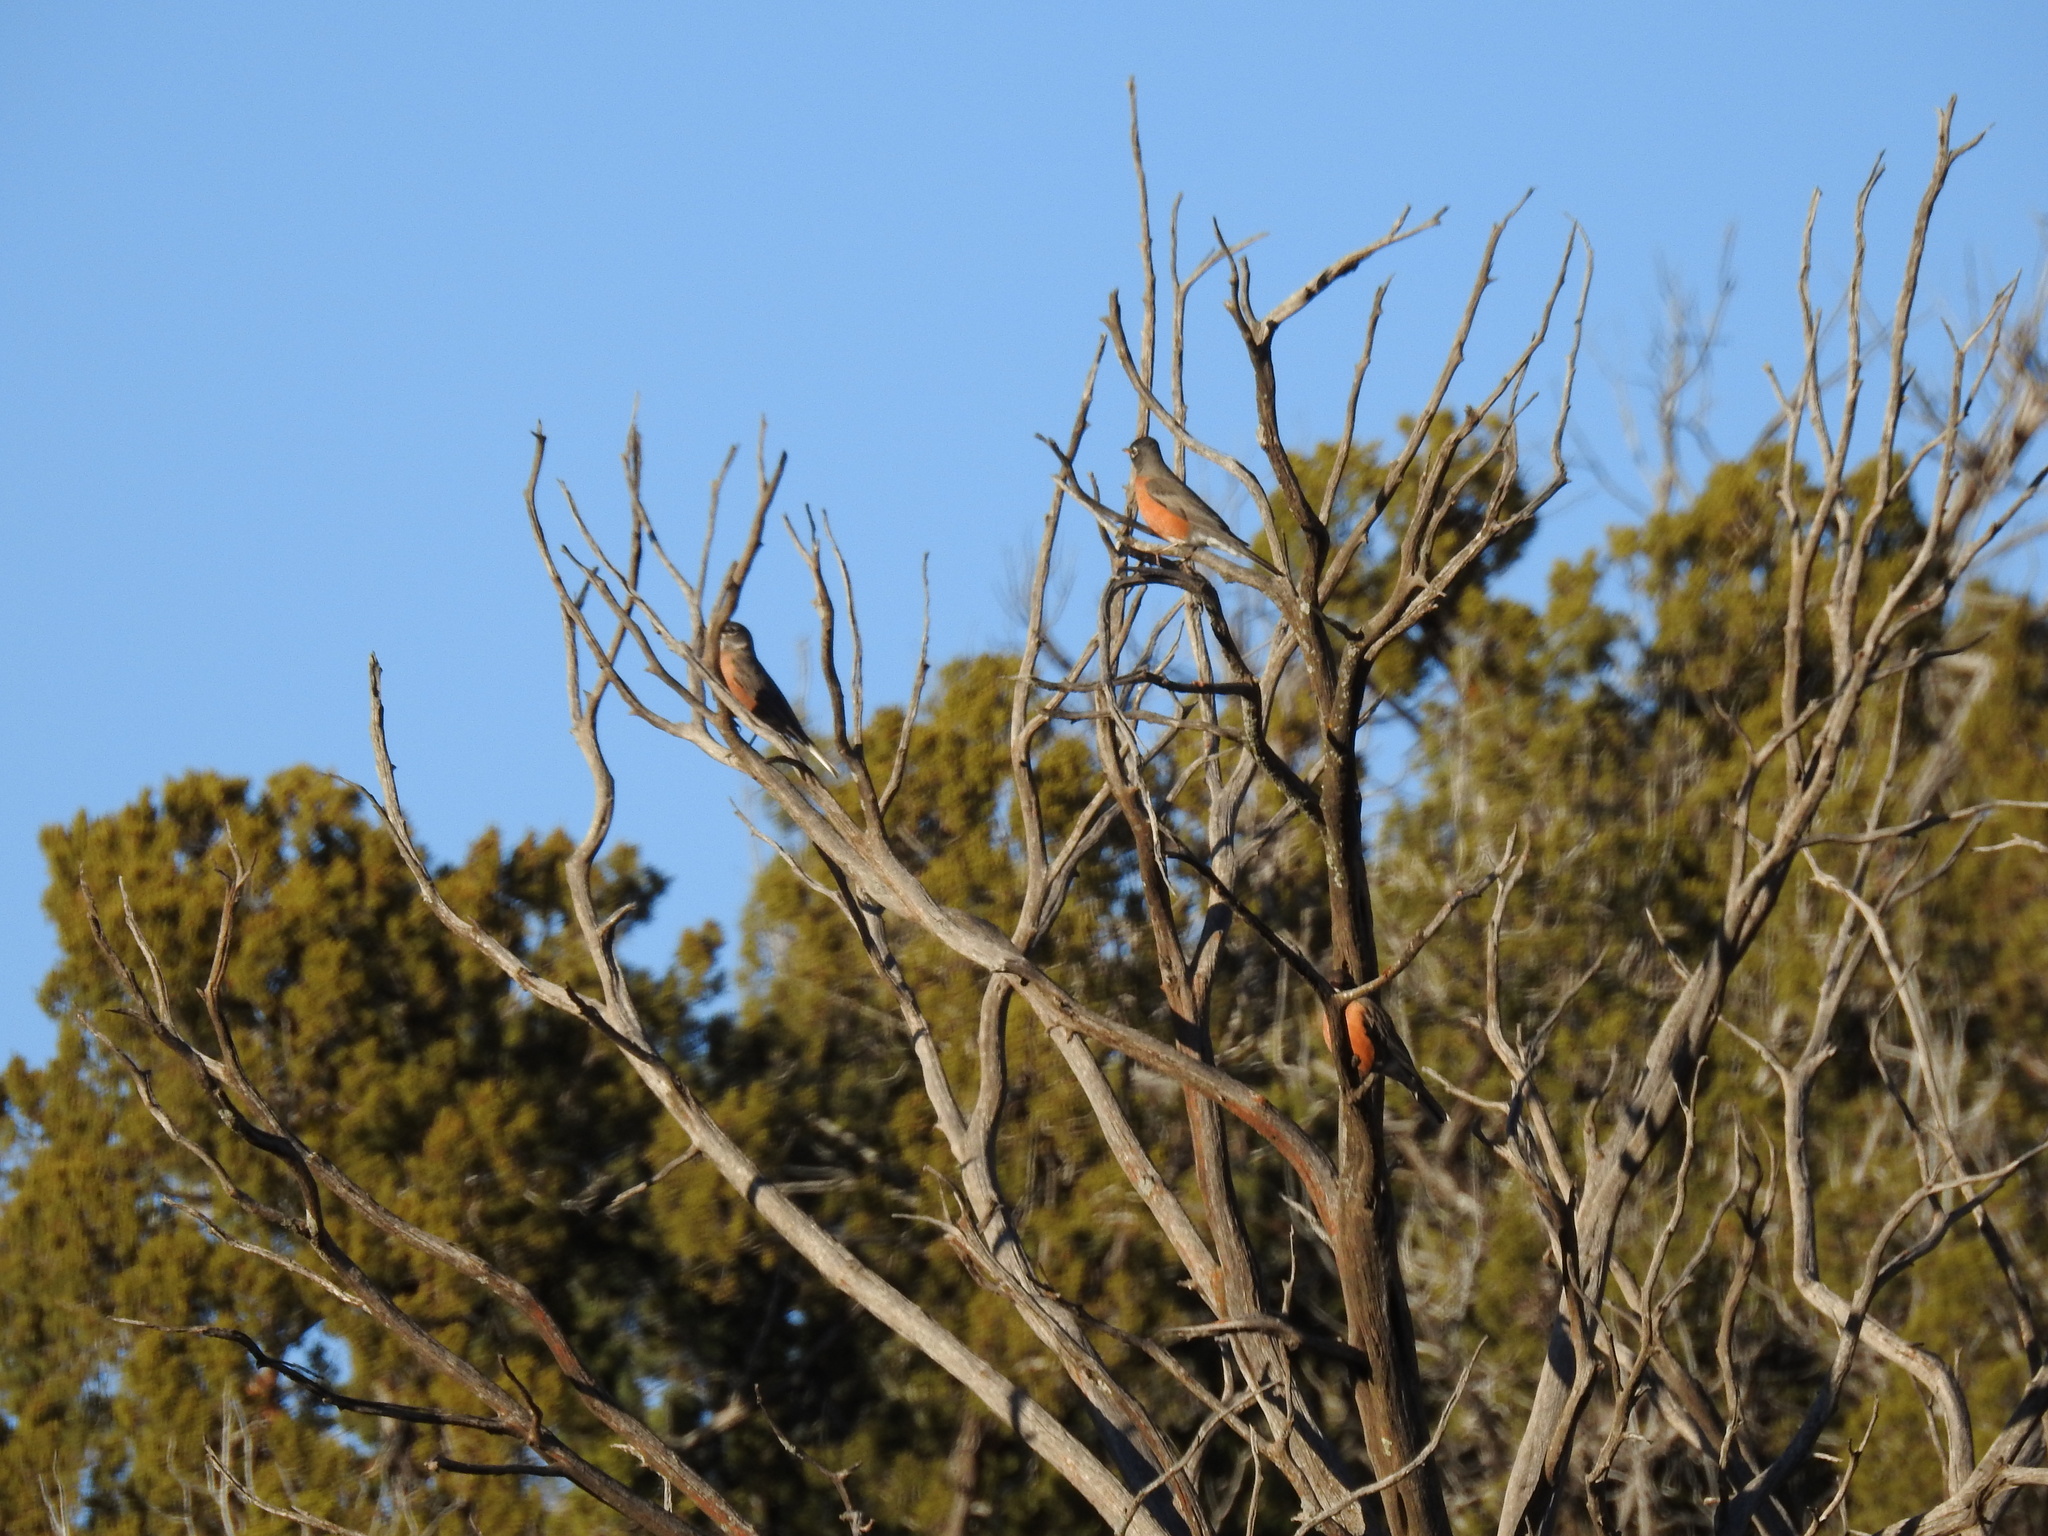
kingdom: Animalia
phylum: Chordata
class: Aves
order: Passeriformes
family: Turdidae
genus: Turdus
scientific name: Turdus migratorius
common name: American robin
